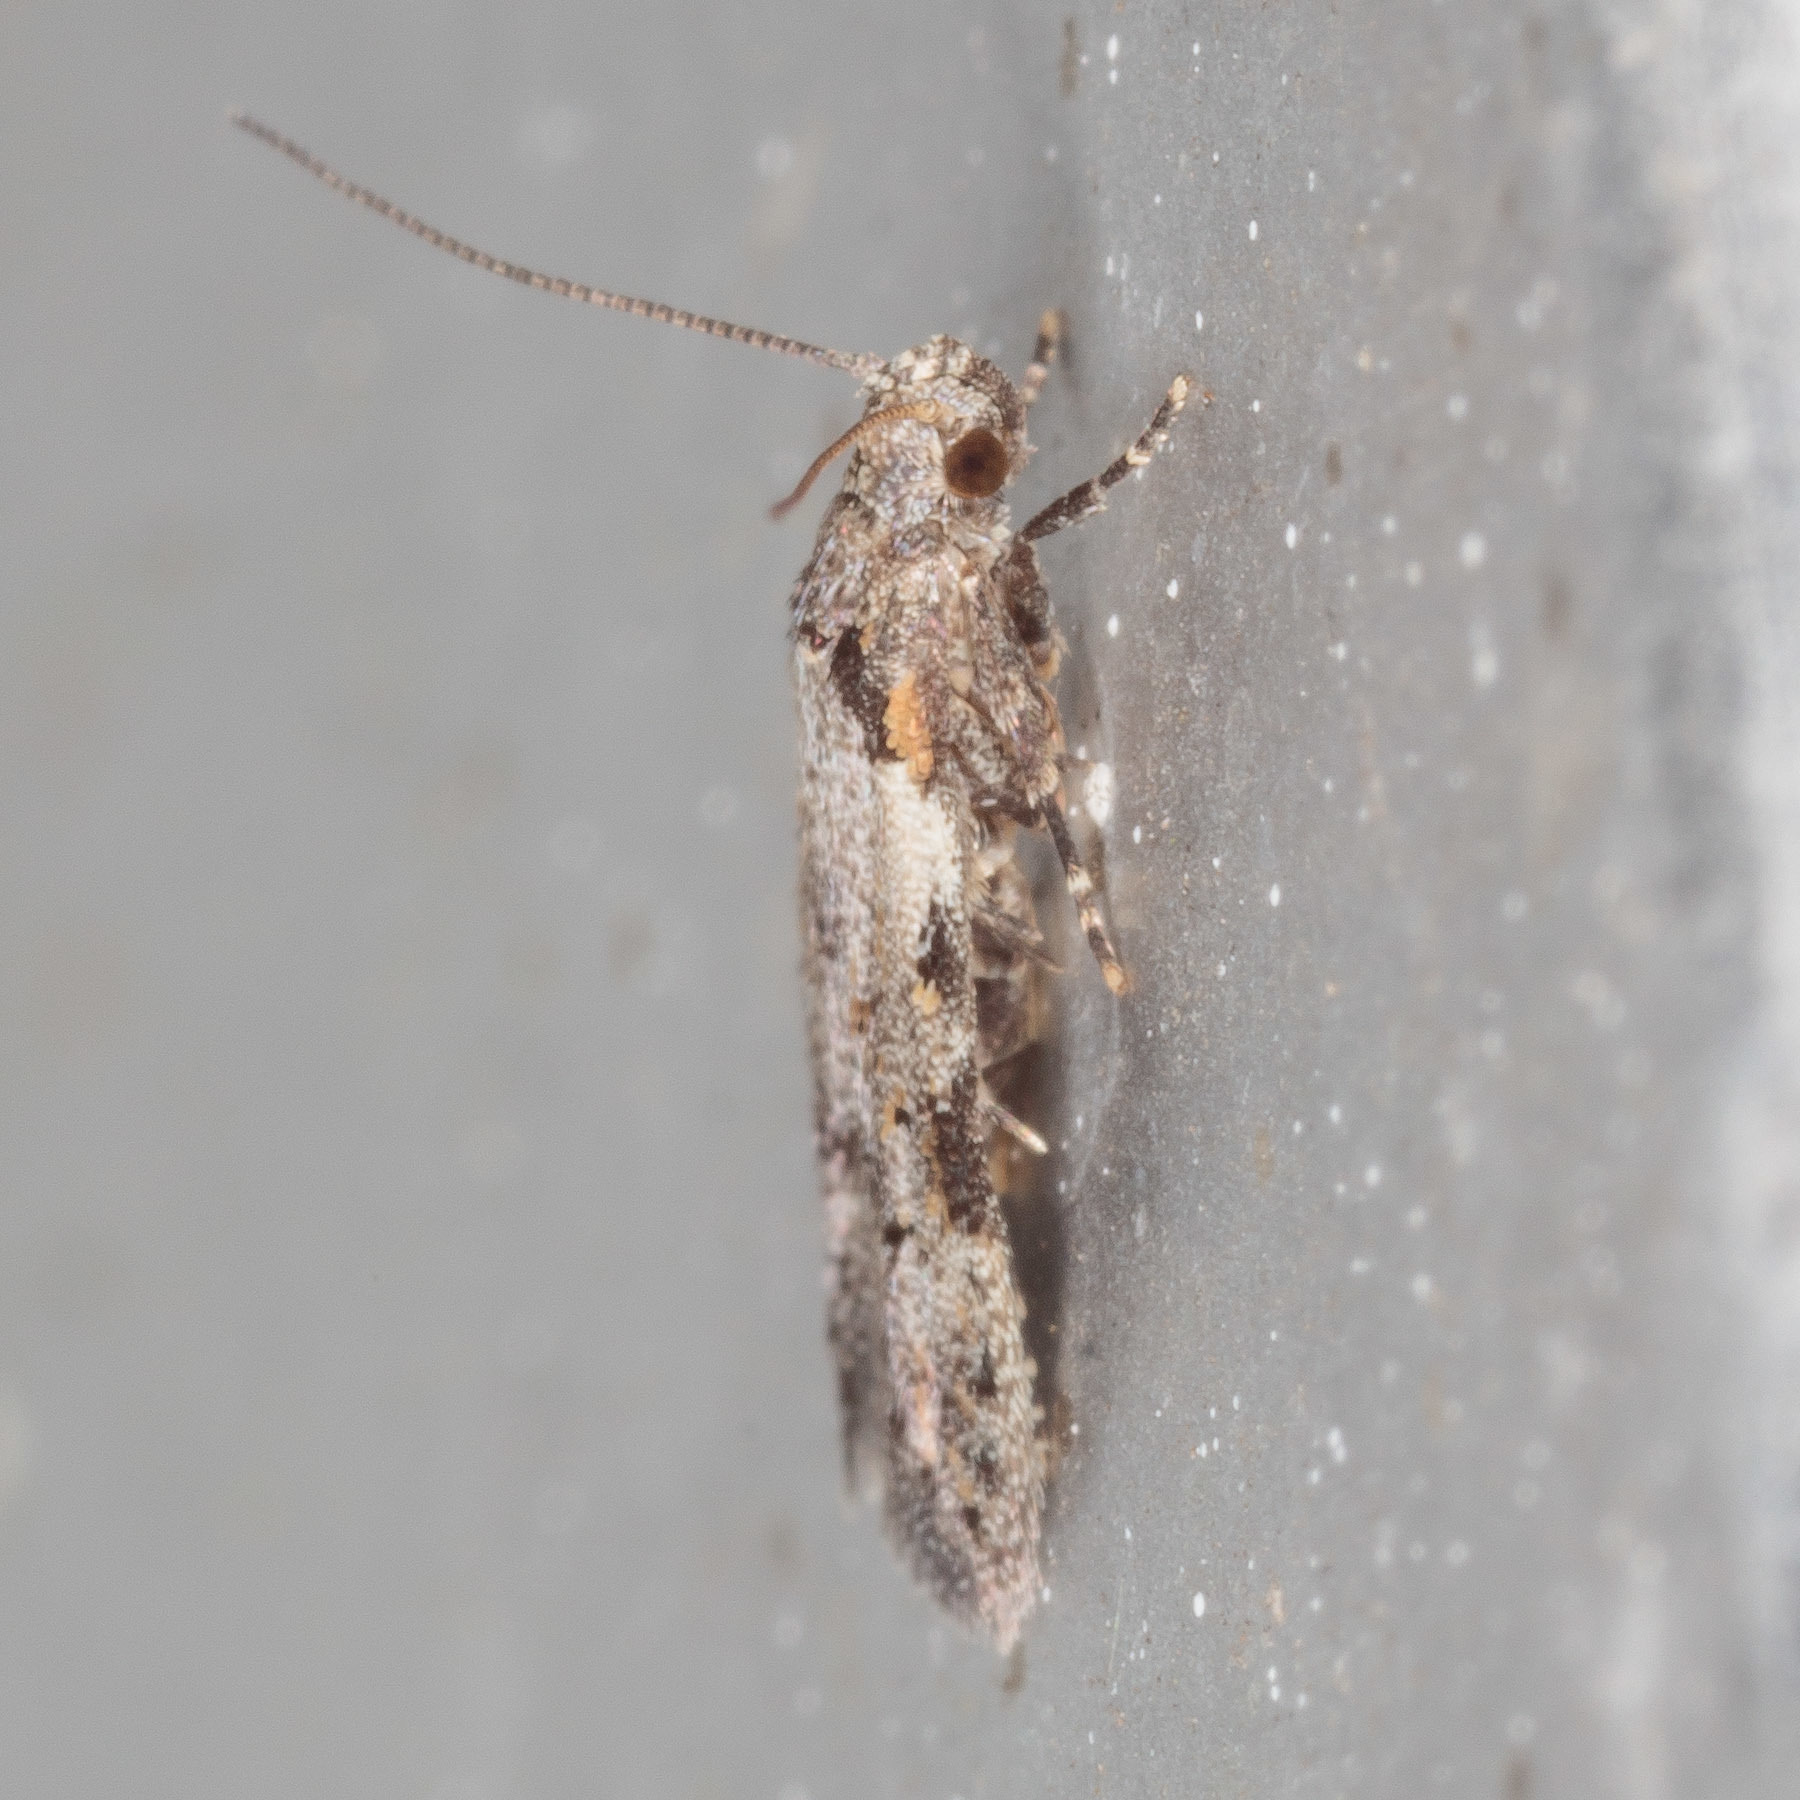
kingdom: Animalia
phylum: Arthropoda
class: Insecta
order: Lepidoptera
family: Autostichidae
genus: Taygete
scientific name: Taygete attributella
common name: Triangle-marked twirler moth
